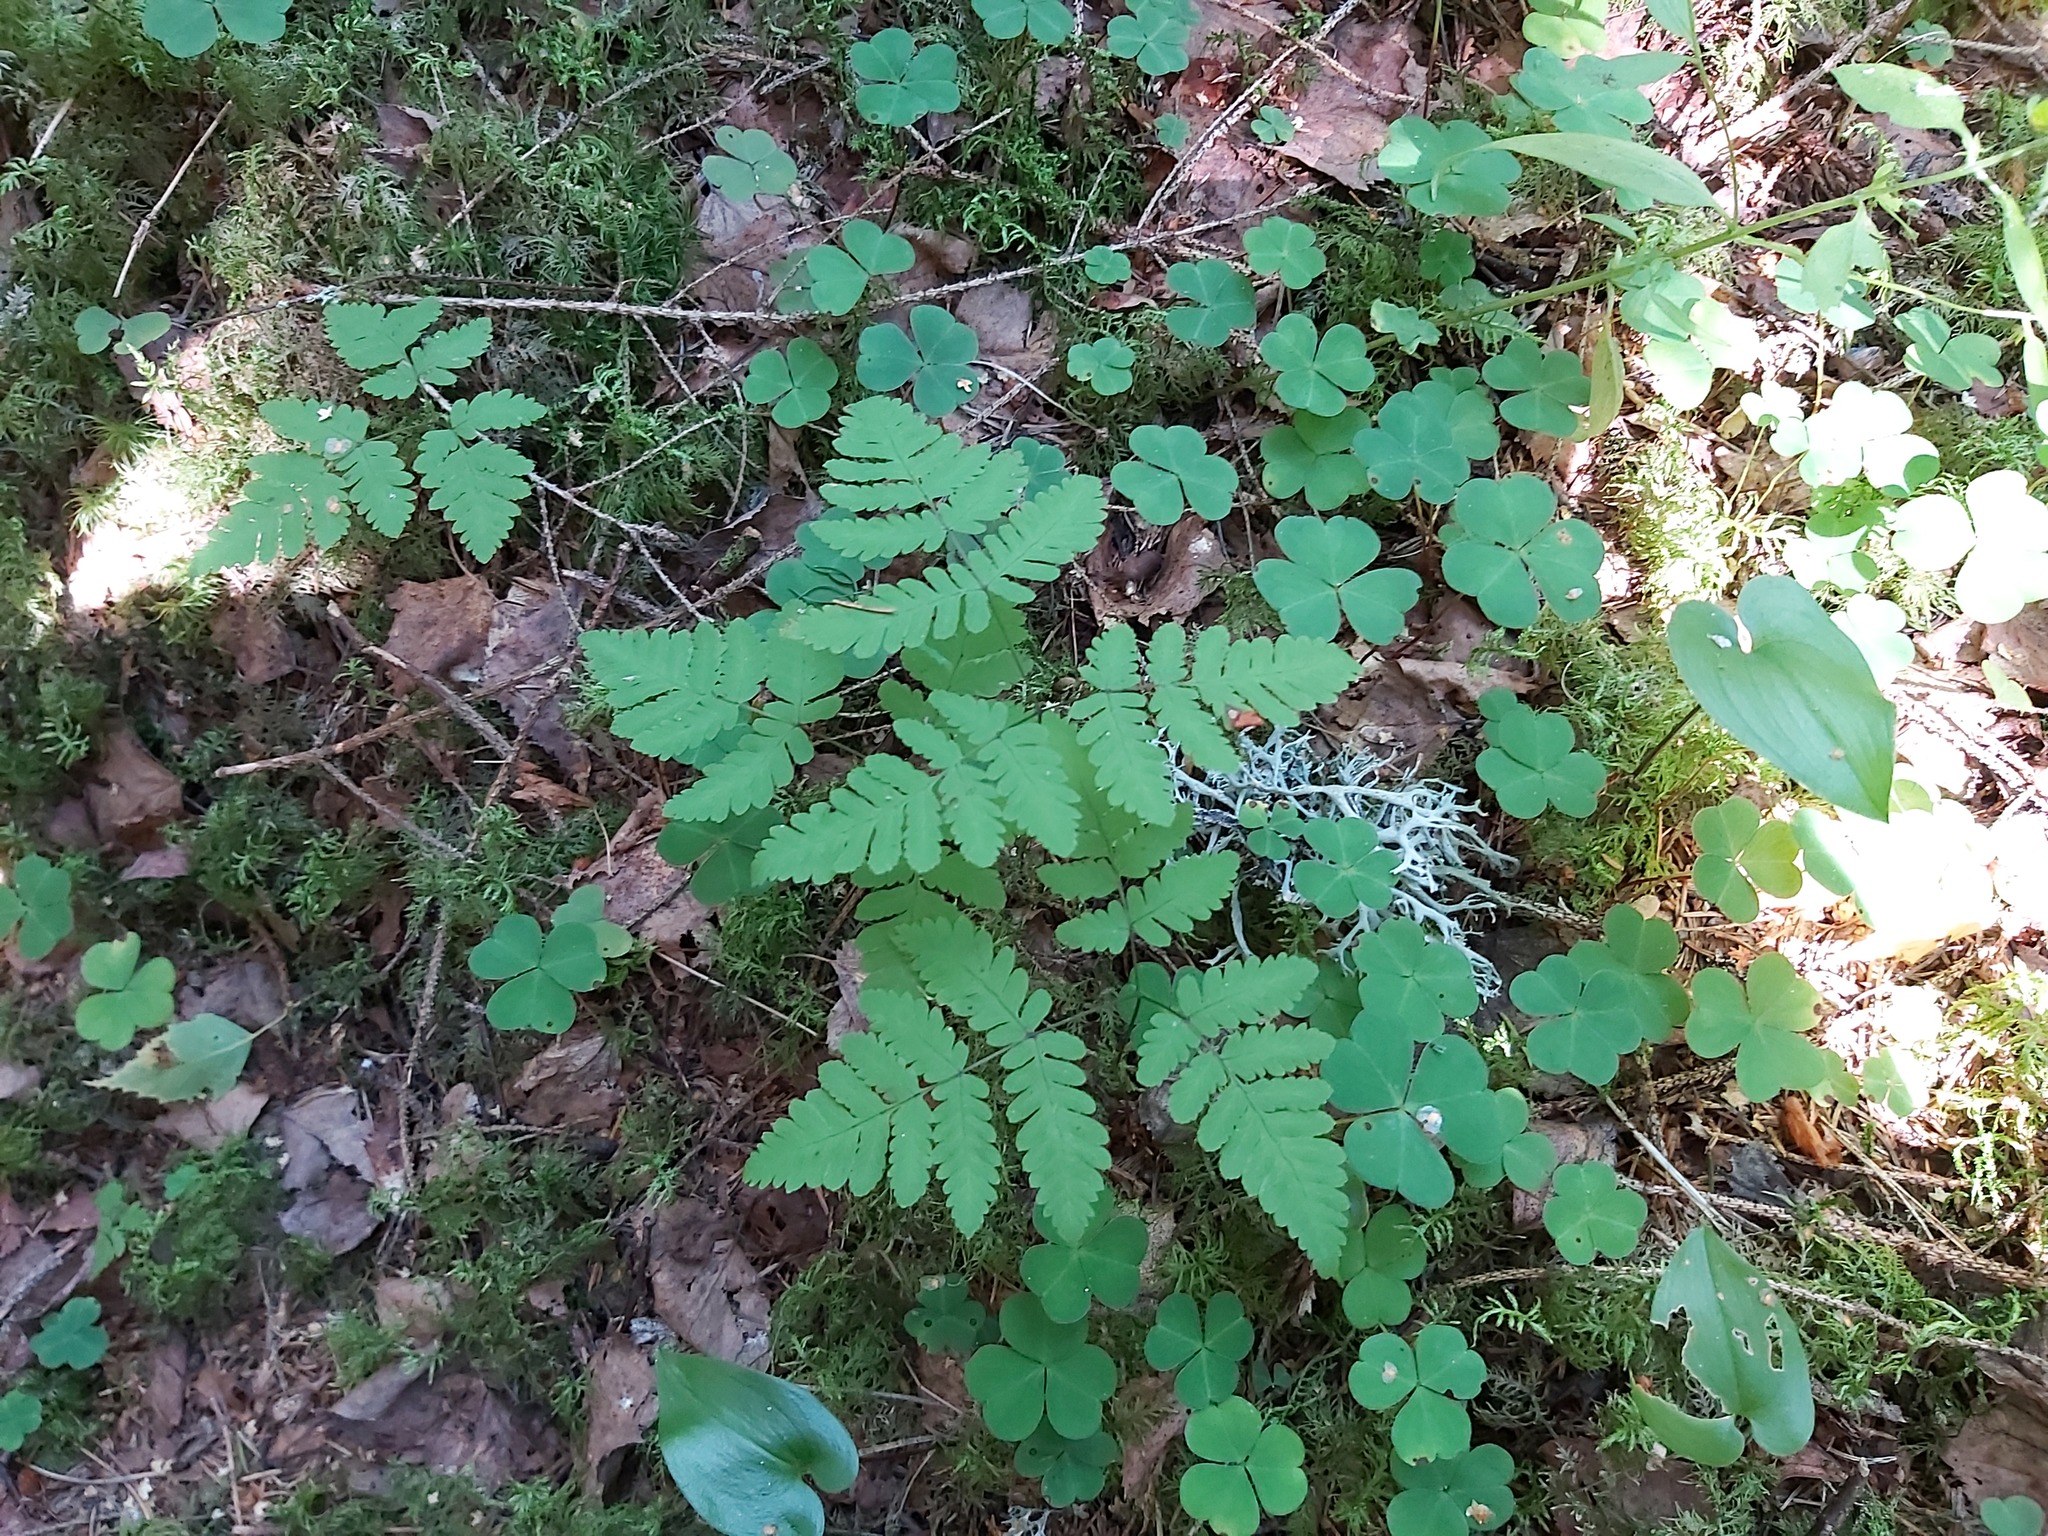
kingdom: Plantae
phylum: Tracheophyta
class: Polypodiopsida
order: Polypodiales
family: Cystopteridaceae
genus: Gymnocarpium
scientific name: Gymnocarpium dryopteris
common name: Oak fern
